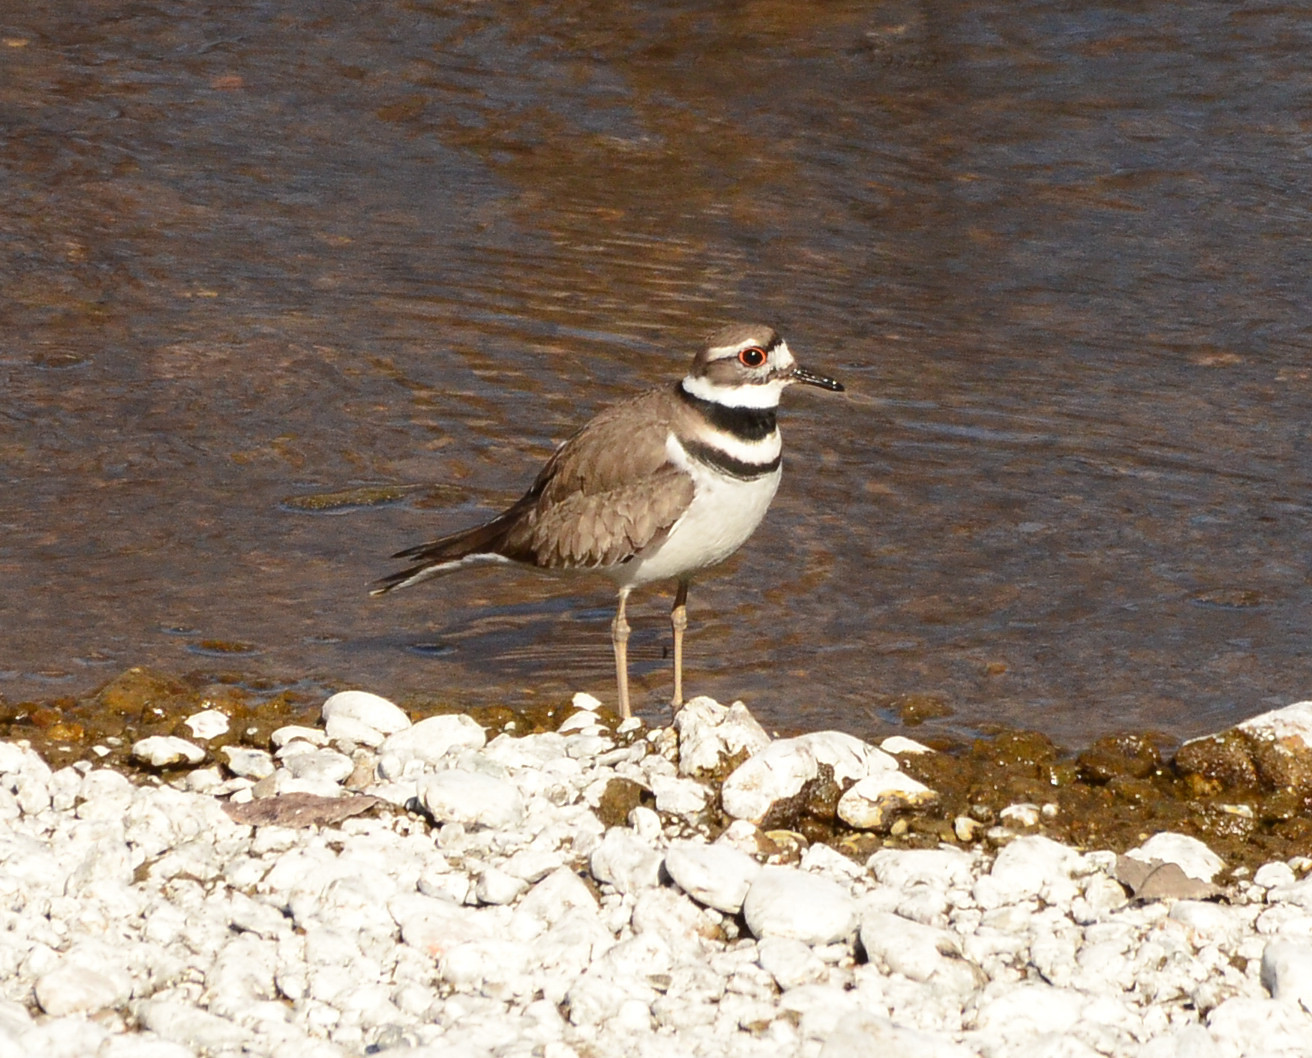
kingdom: Animalia
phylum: Chordata
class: Aves
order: Charadriiformes
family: Charadriidae
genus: Charadrius
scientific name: Charadrius vociferus
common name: Killdeer
